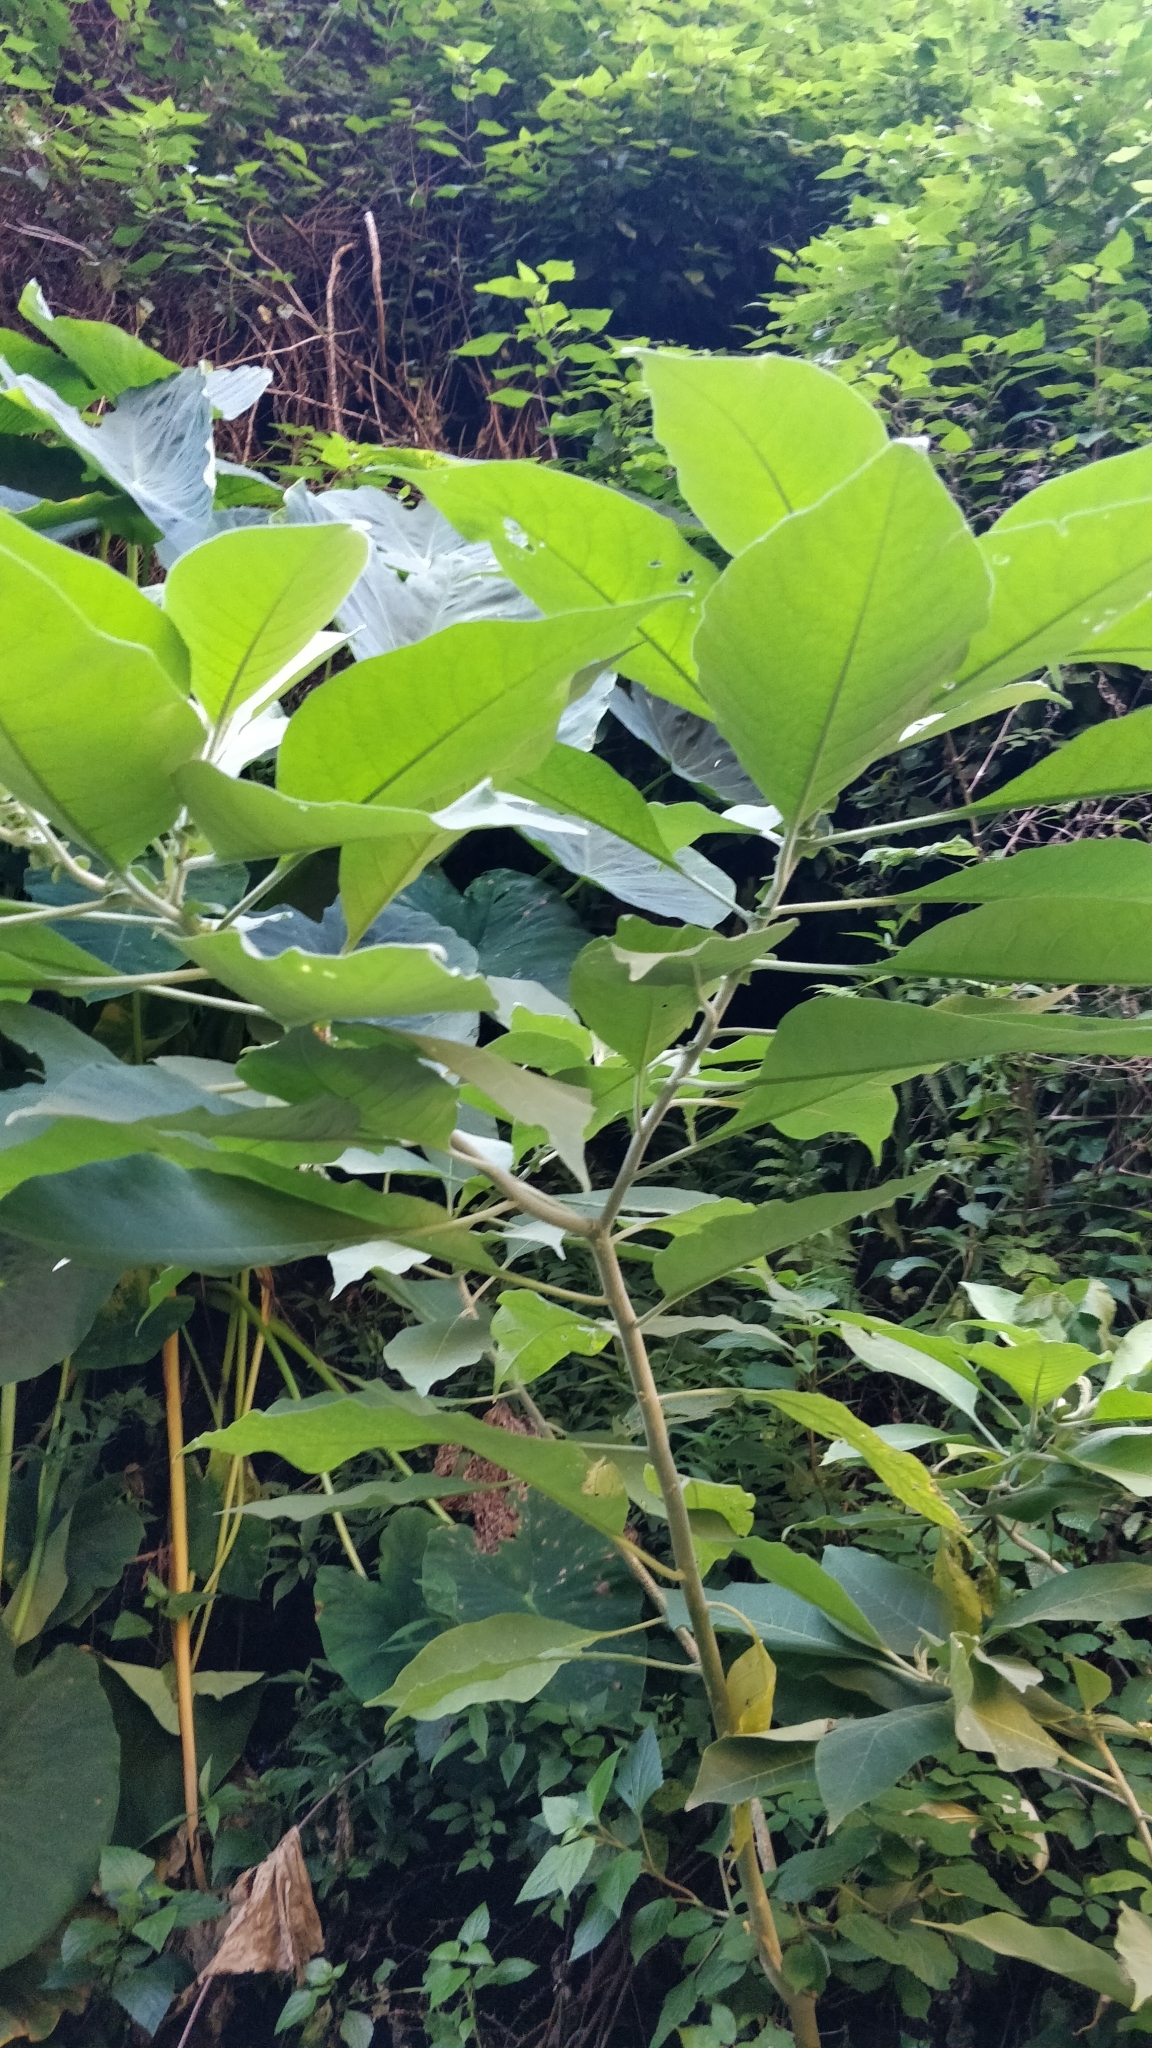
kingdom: Plantae
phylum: Tracheophyta
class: Magnoliopsida
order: Solanales
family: Solanaceae
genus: Solanum
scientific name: Solanum mauritianum
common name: Earleaf nightshade
